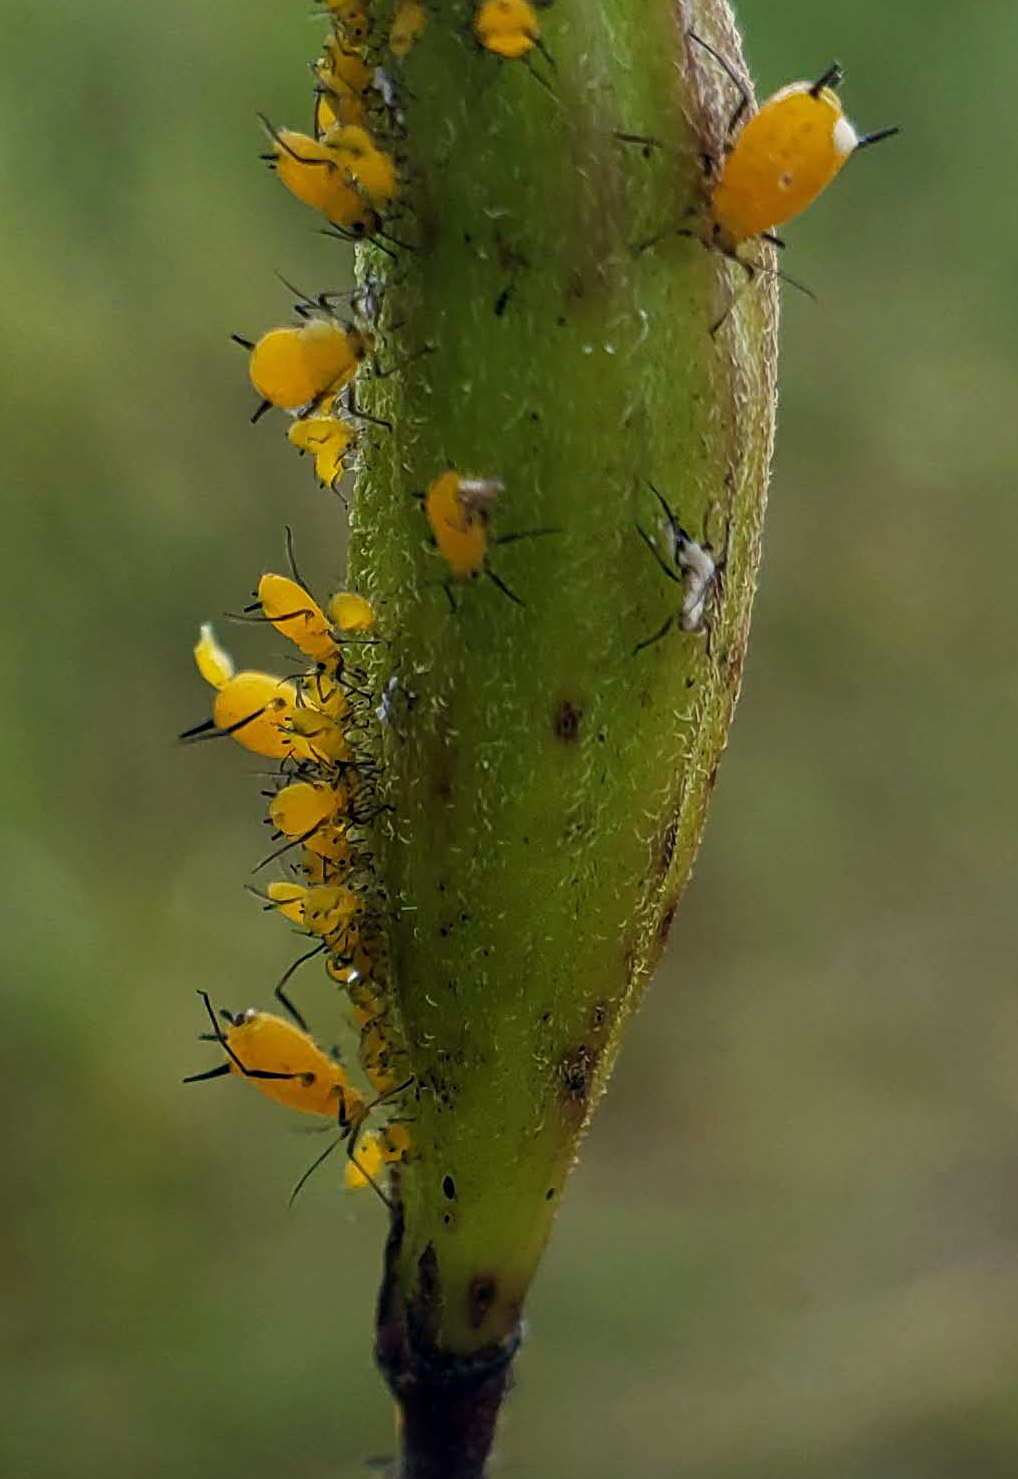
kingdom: Animalia
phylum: Arthropoda
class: Insecta
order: Hemiptera
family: Aphididae
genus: Aphis
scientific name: Aphis nerii
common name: Oleander aphid
